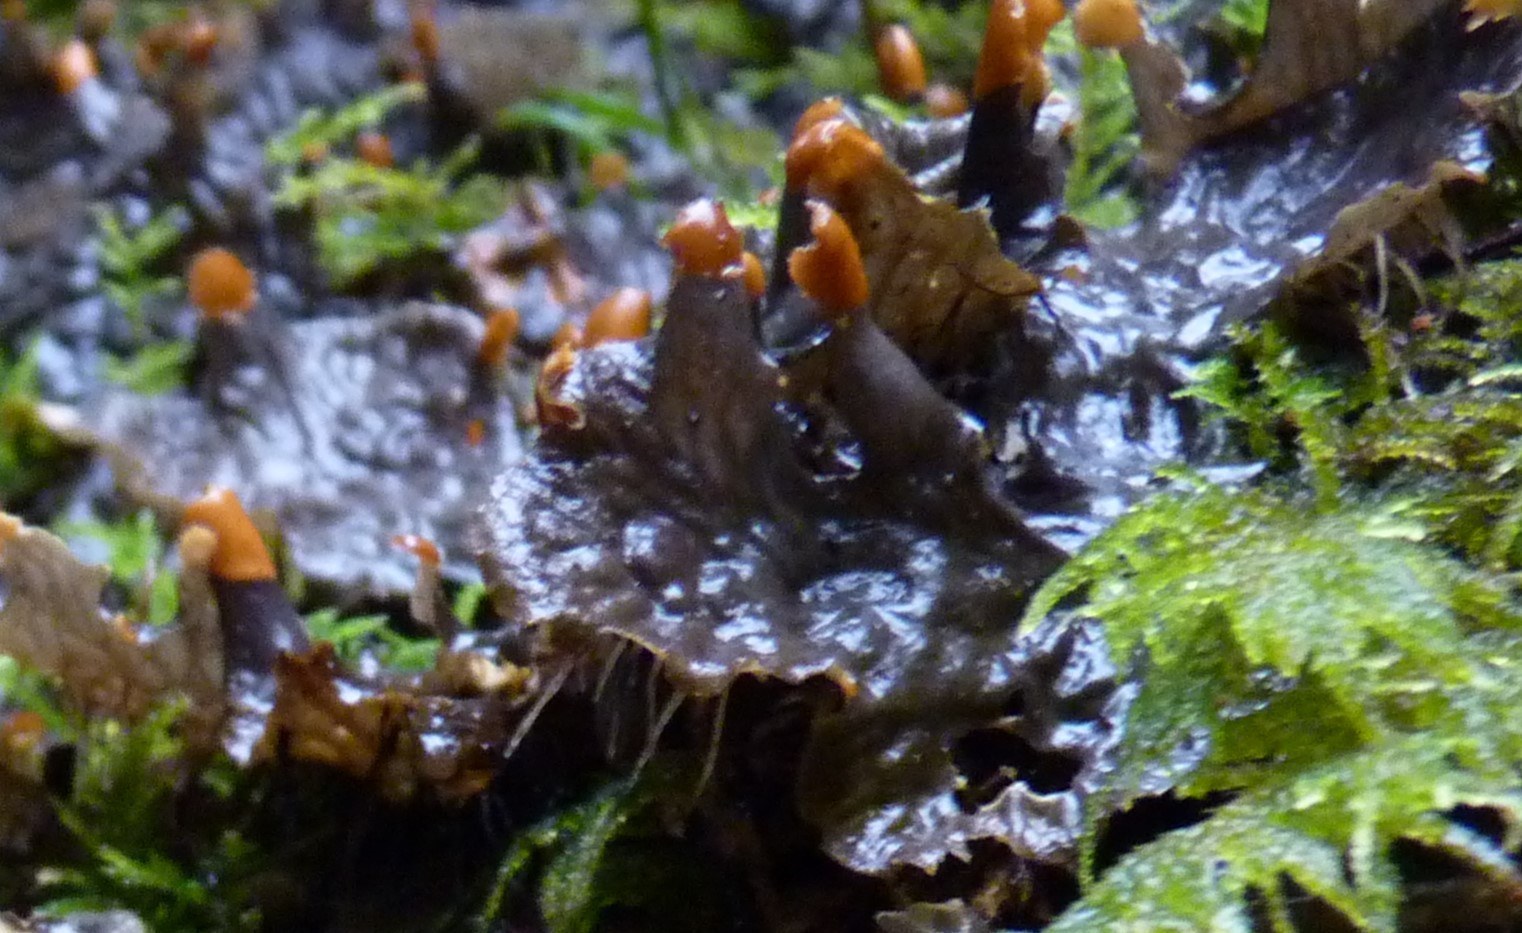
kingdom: Fungi
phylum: Ascomycota
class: Lecanoromycetes
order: Peltigerales
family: Peltigeraceae
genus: Peltigera
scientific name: Peltigera membranacea
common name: Membranous pelt lichen
